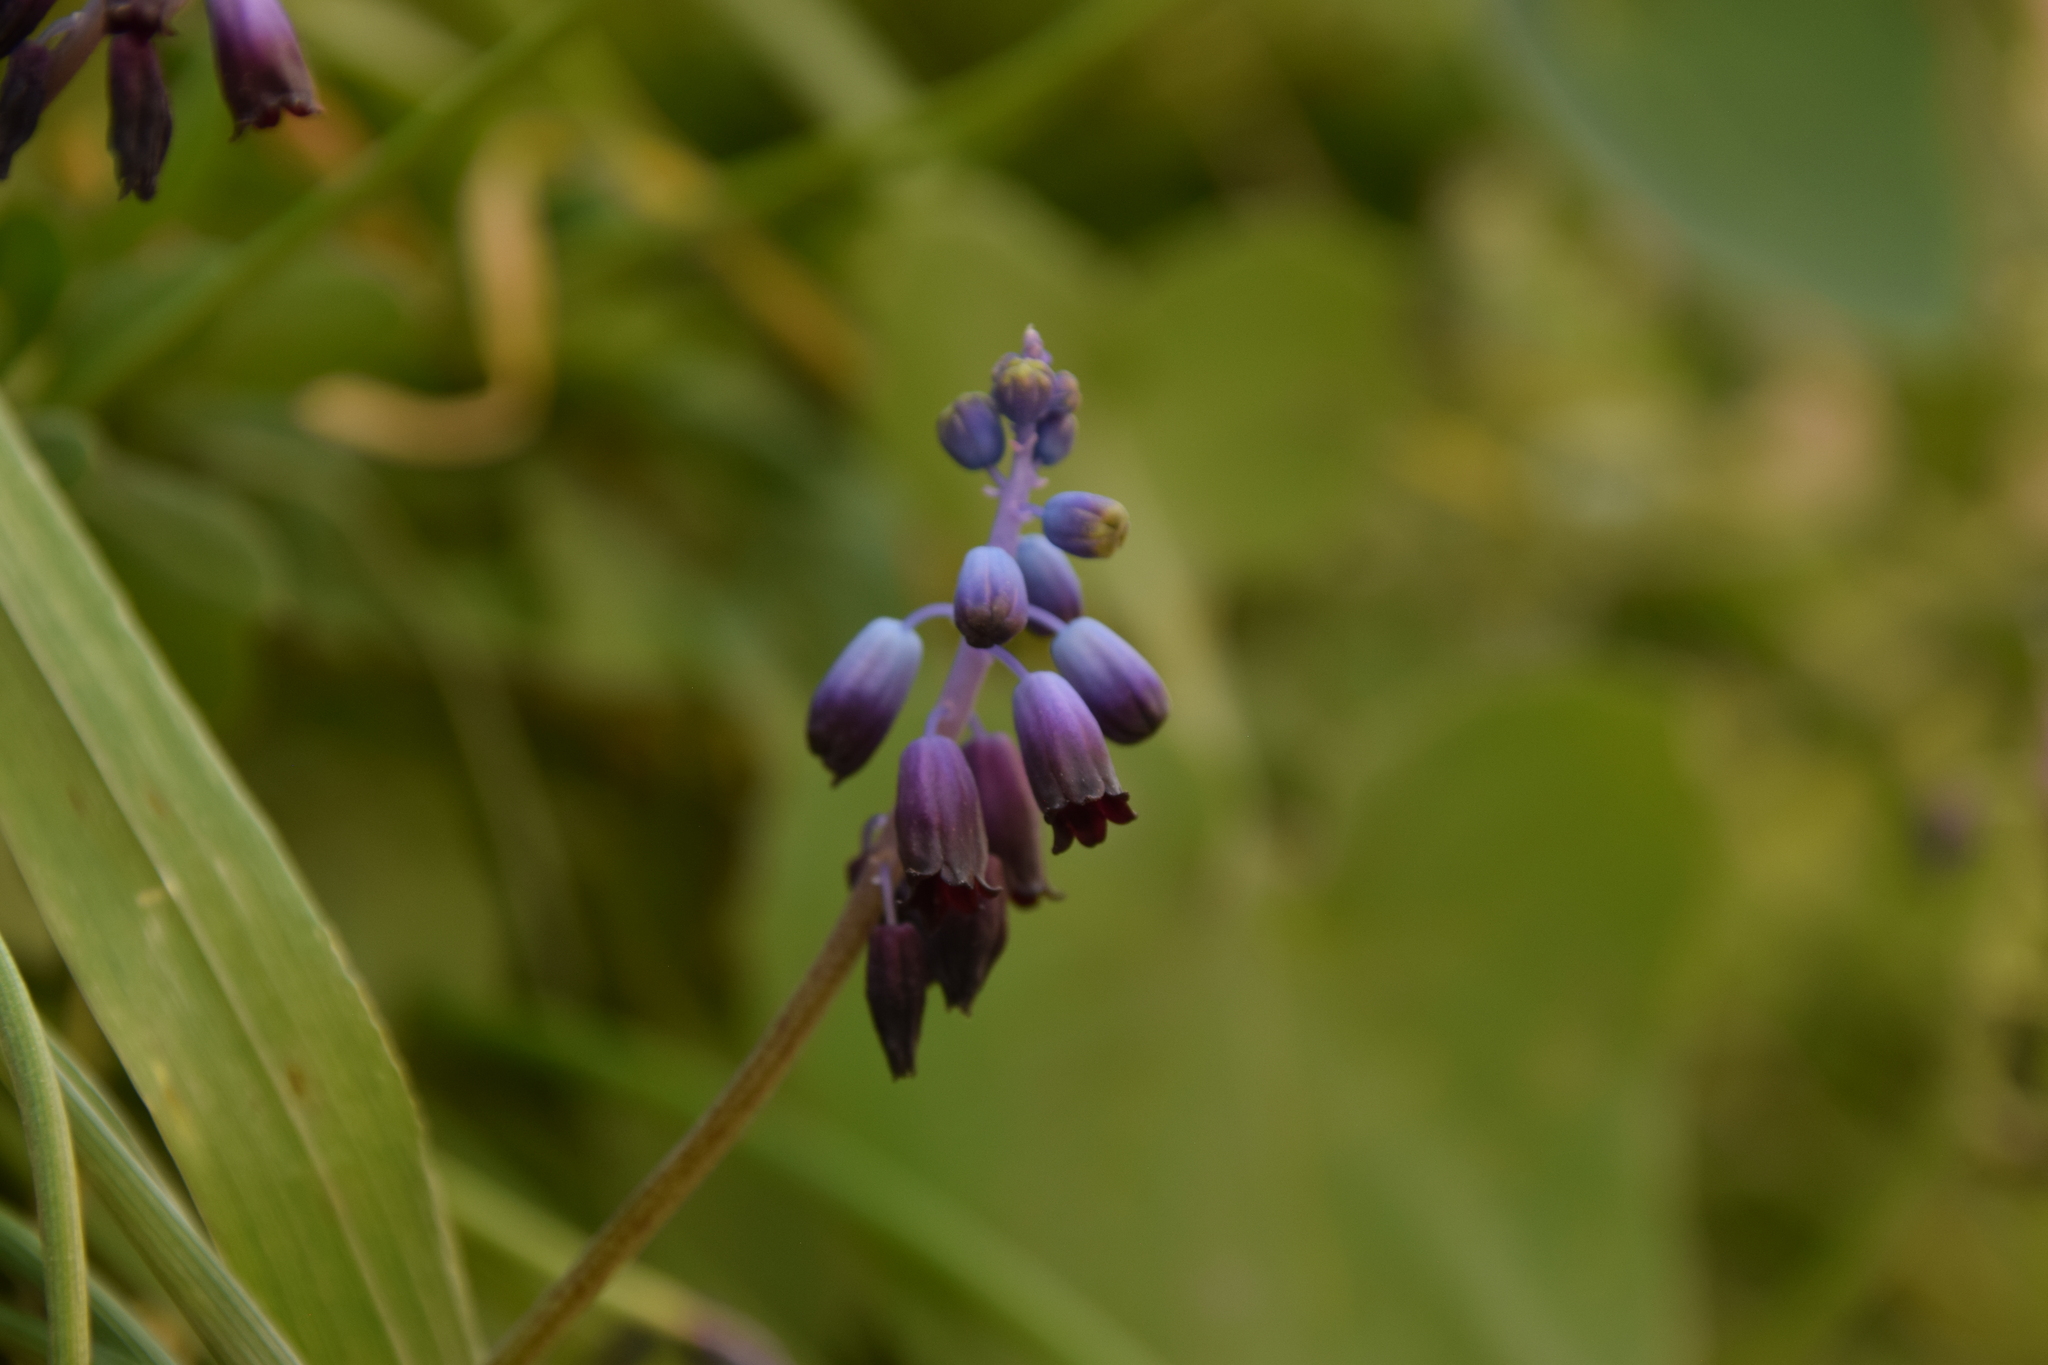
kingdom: Plantae
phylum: Tracheophyta
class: Liliopsida
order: Asparagales
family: Asparagaceae
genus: Muscari
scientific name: Muscari inconstrictum
